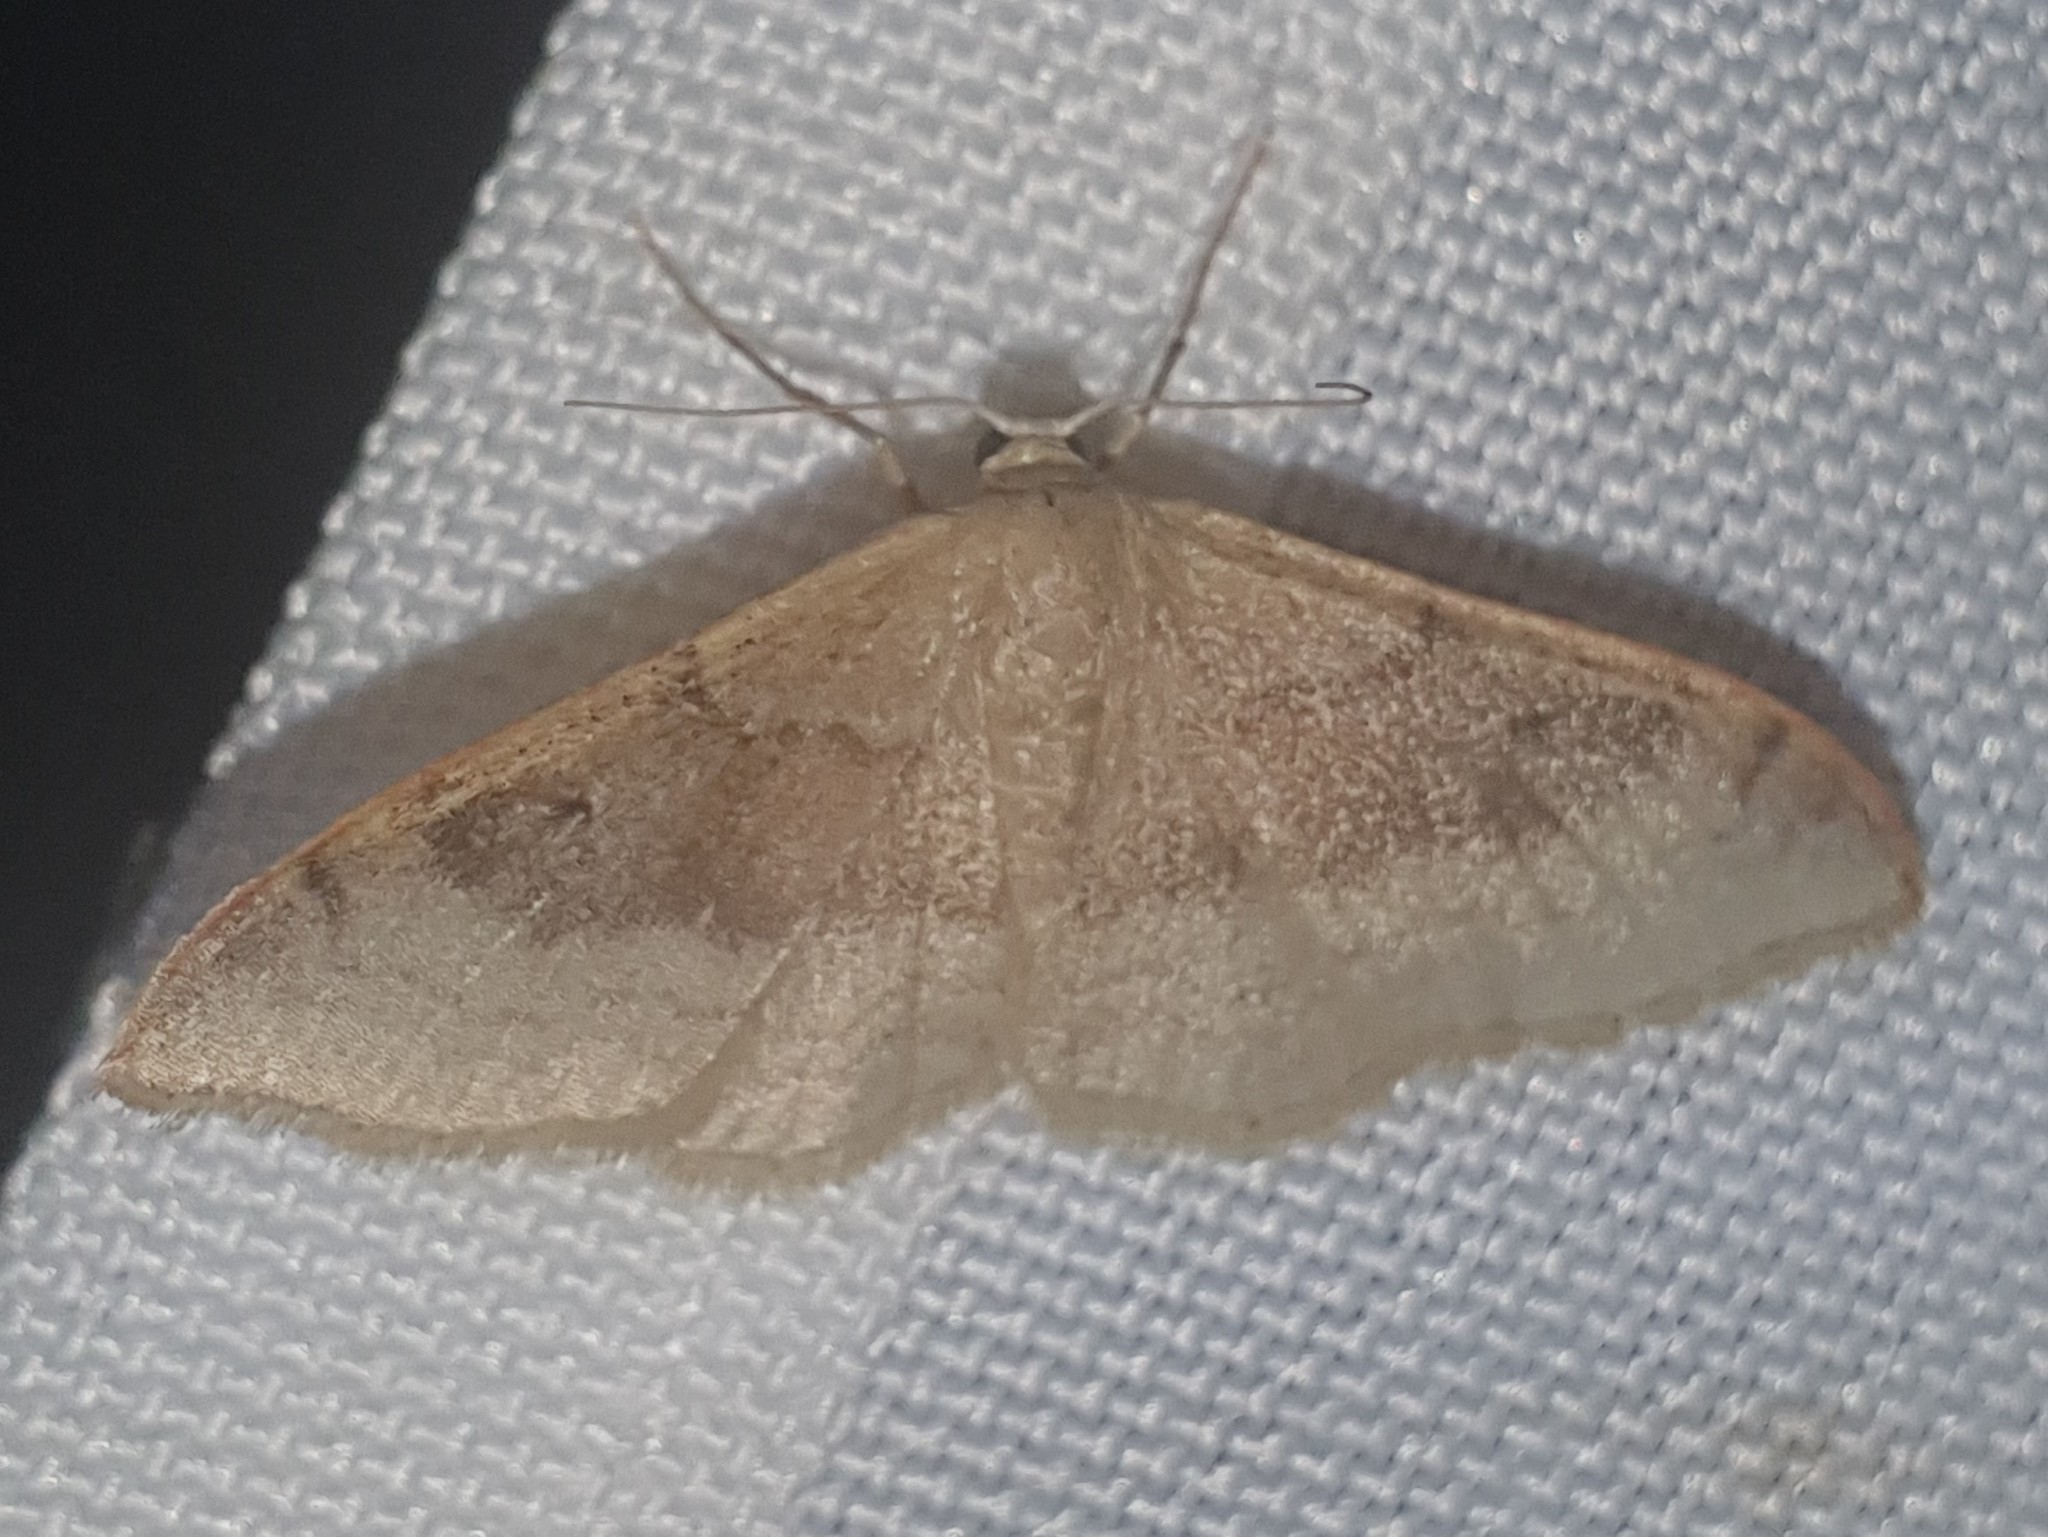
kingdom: Animalia
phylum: Arthropoda
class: Insecta
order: Lepidoptera
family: Geometridae
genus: Idaea
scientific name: Idaea degeneraria
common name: Portland ribbon wave
